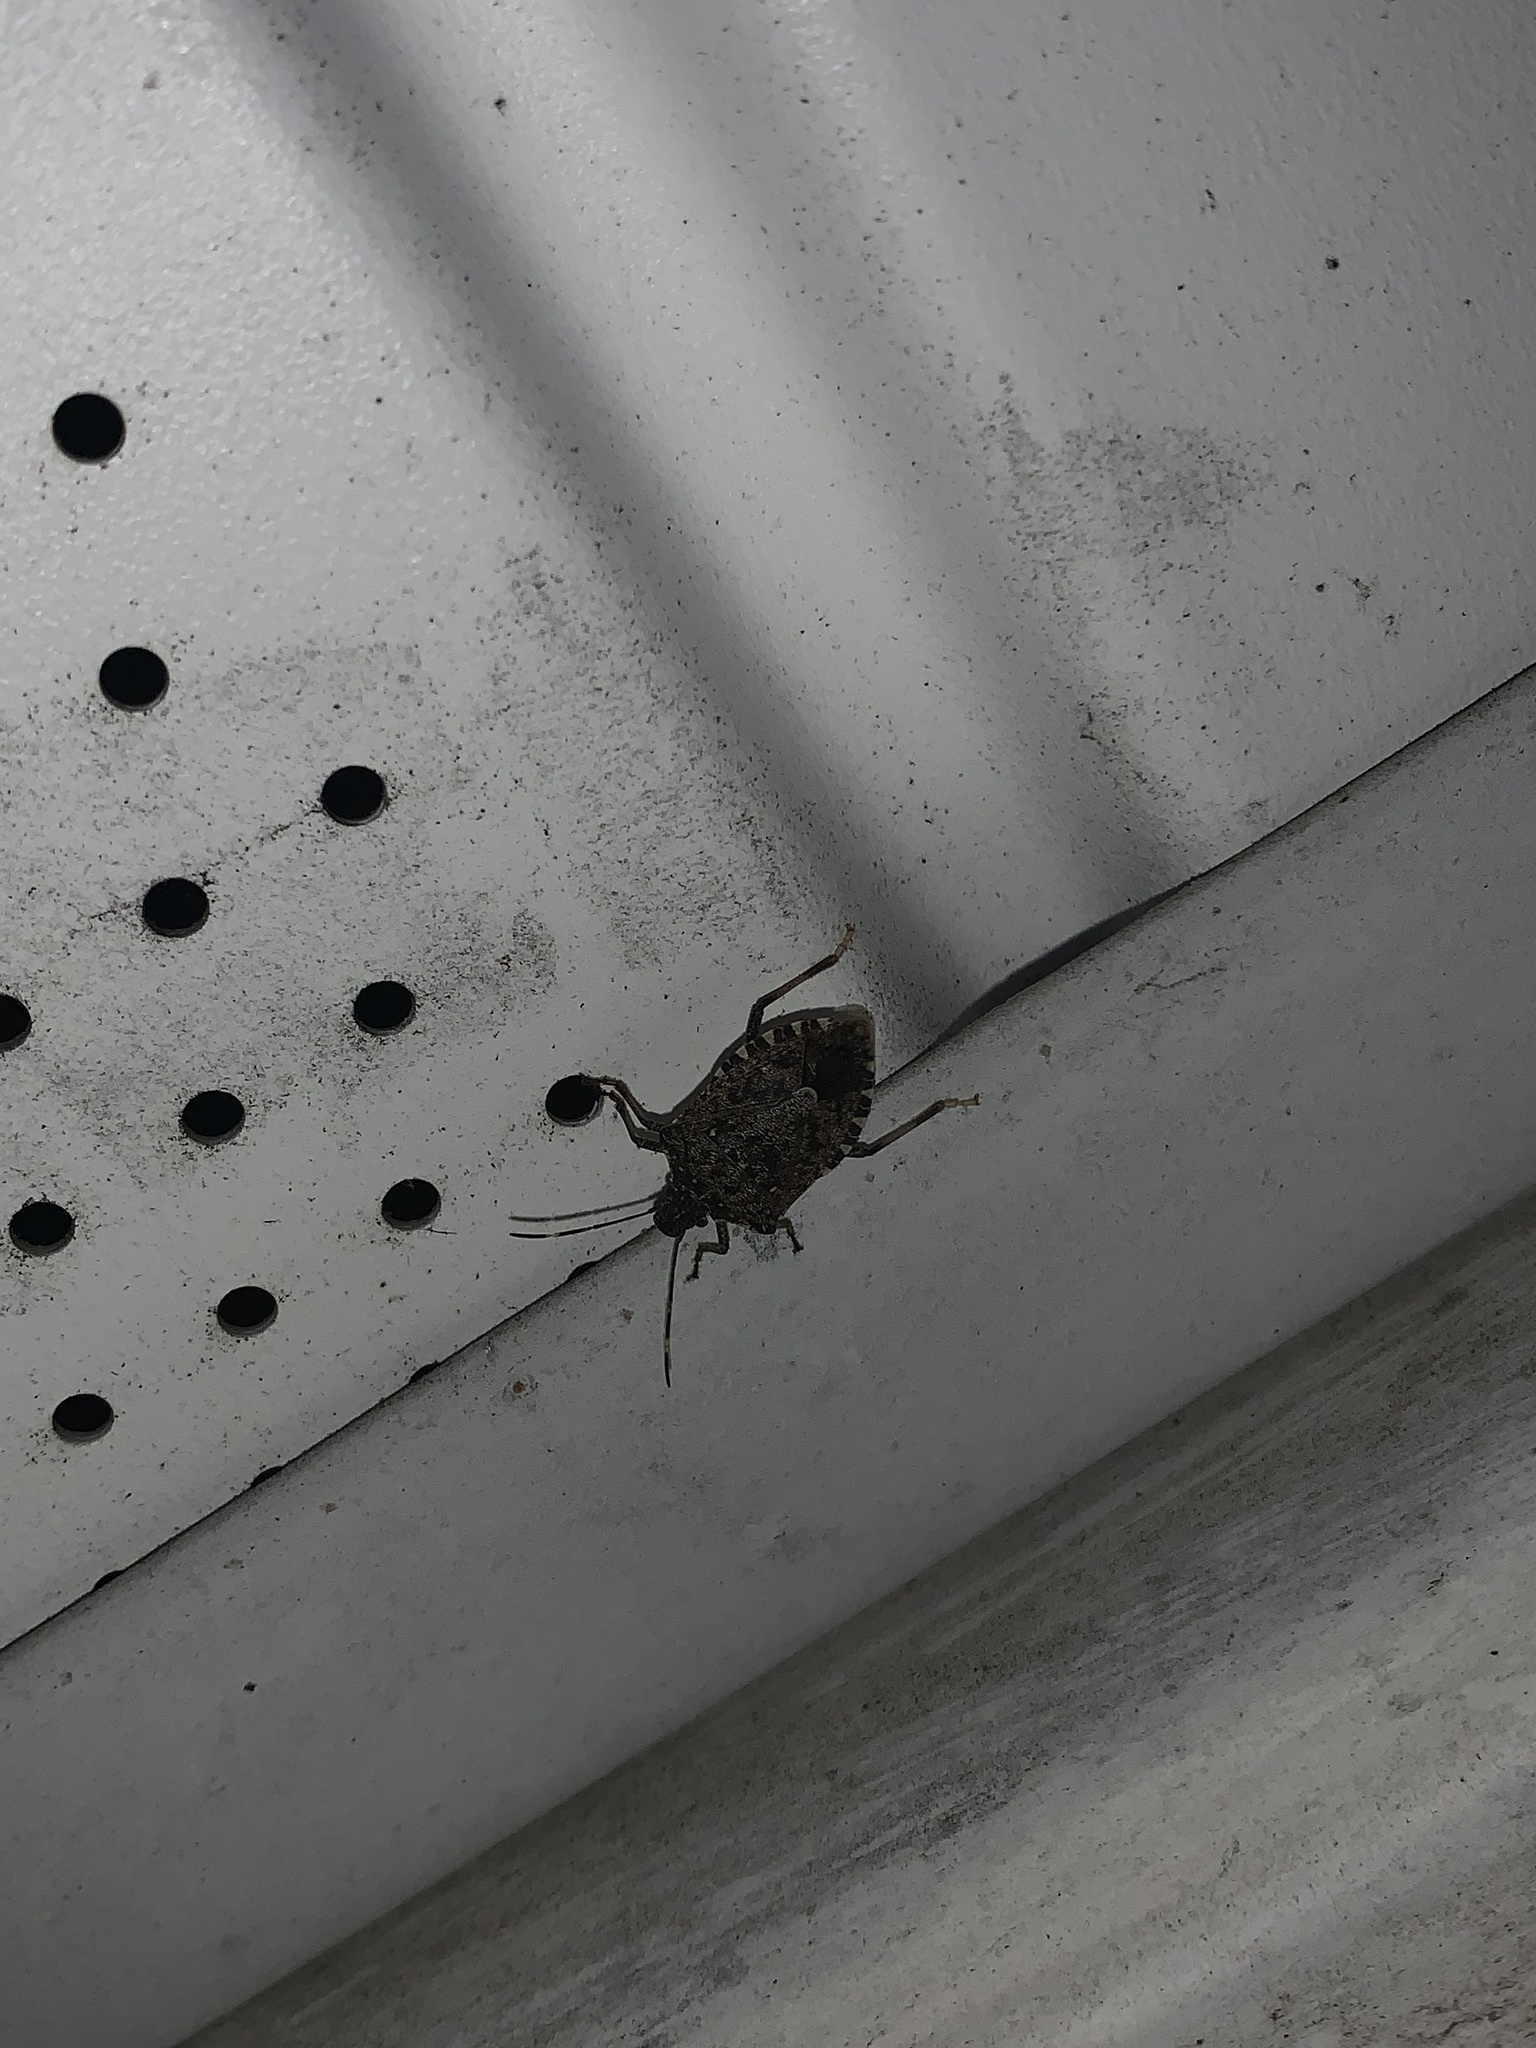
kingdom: Animalia
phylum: Arthropoda
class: Insecta
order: Hemiptera
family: Pentatomidae
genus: Halyomorpha
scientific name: Halyomorpha halys
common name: Brown marmorated stink bug
